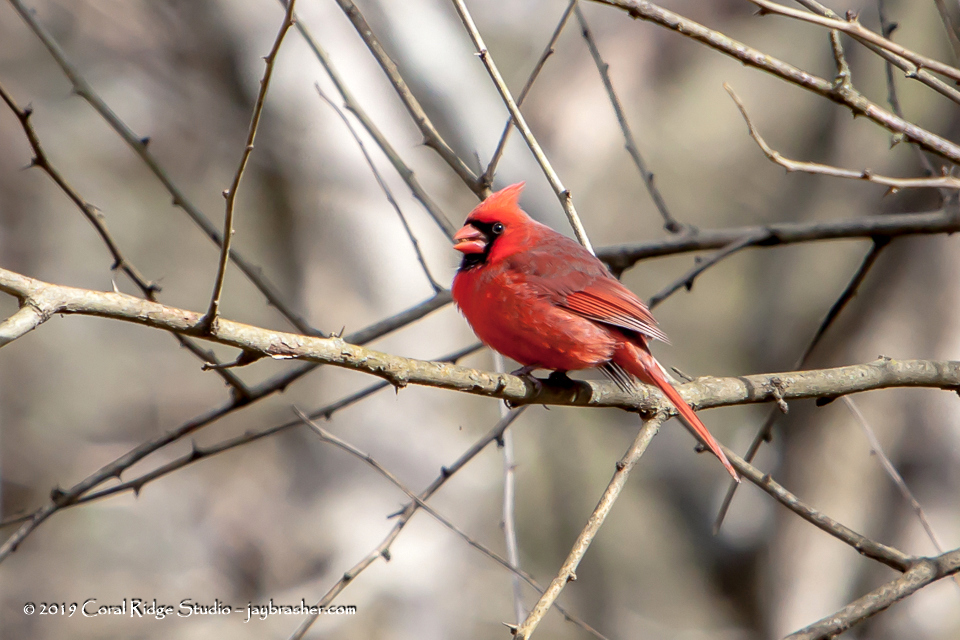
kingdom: Animalia
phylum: Chordata
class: Aves
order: Passeriformes
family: Cardinalidae
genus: Cardinalis
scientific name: Cardinalis cardinalis
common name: Northern cardinal
